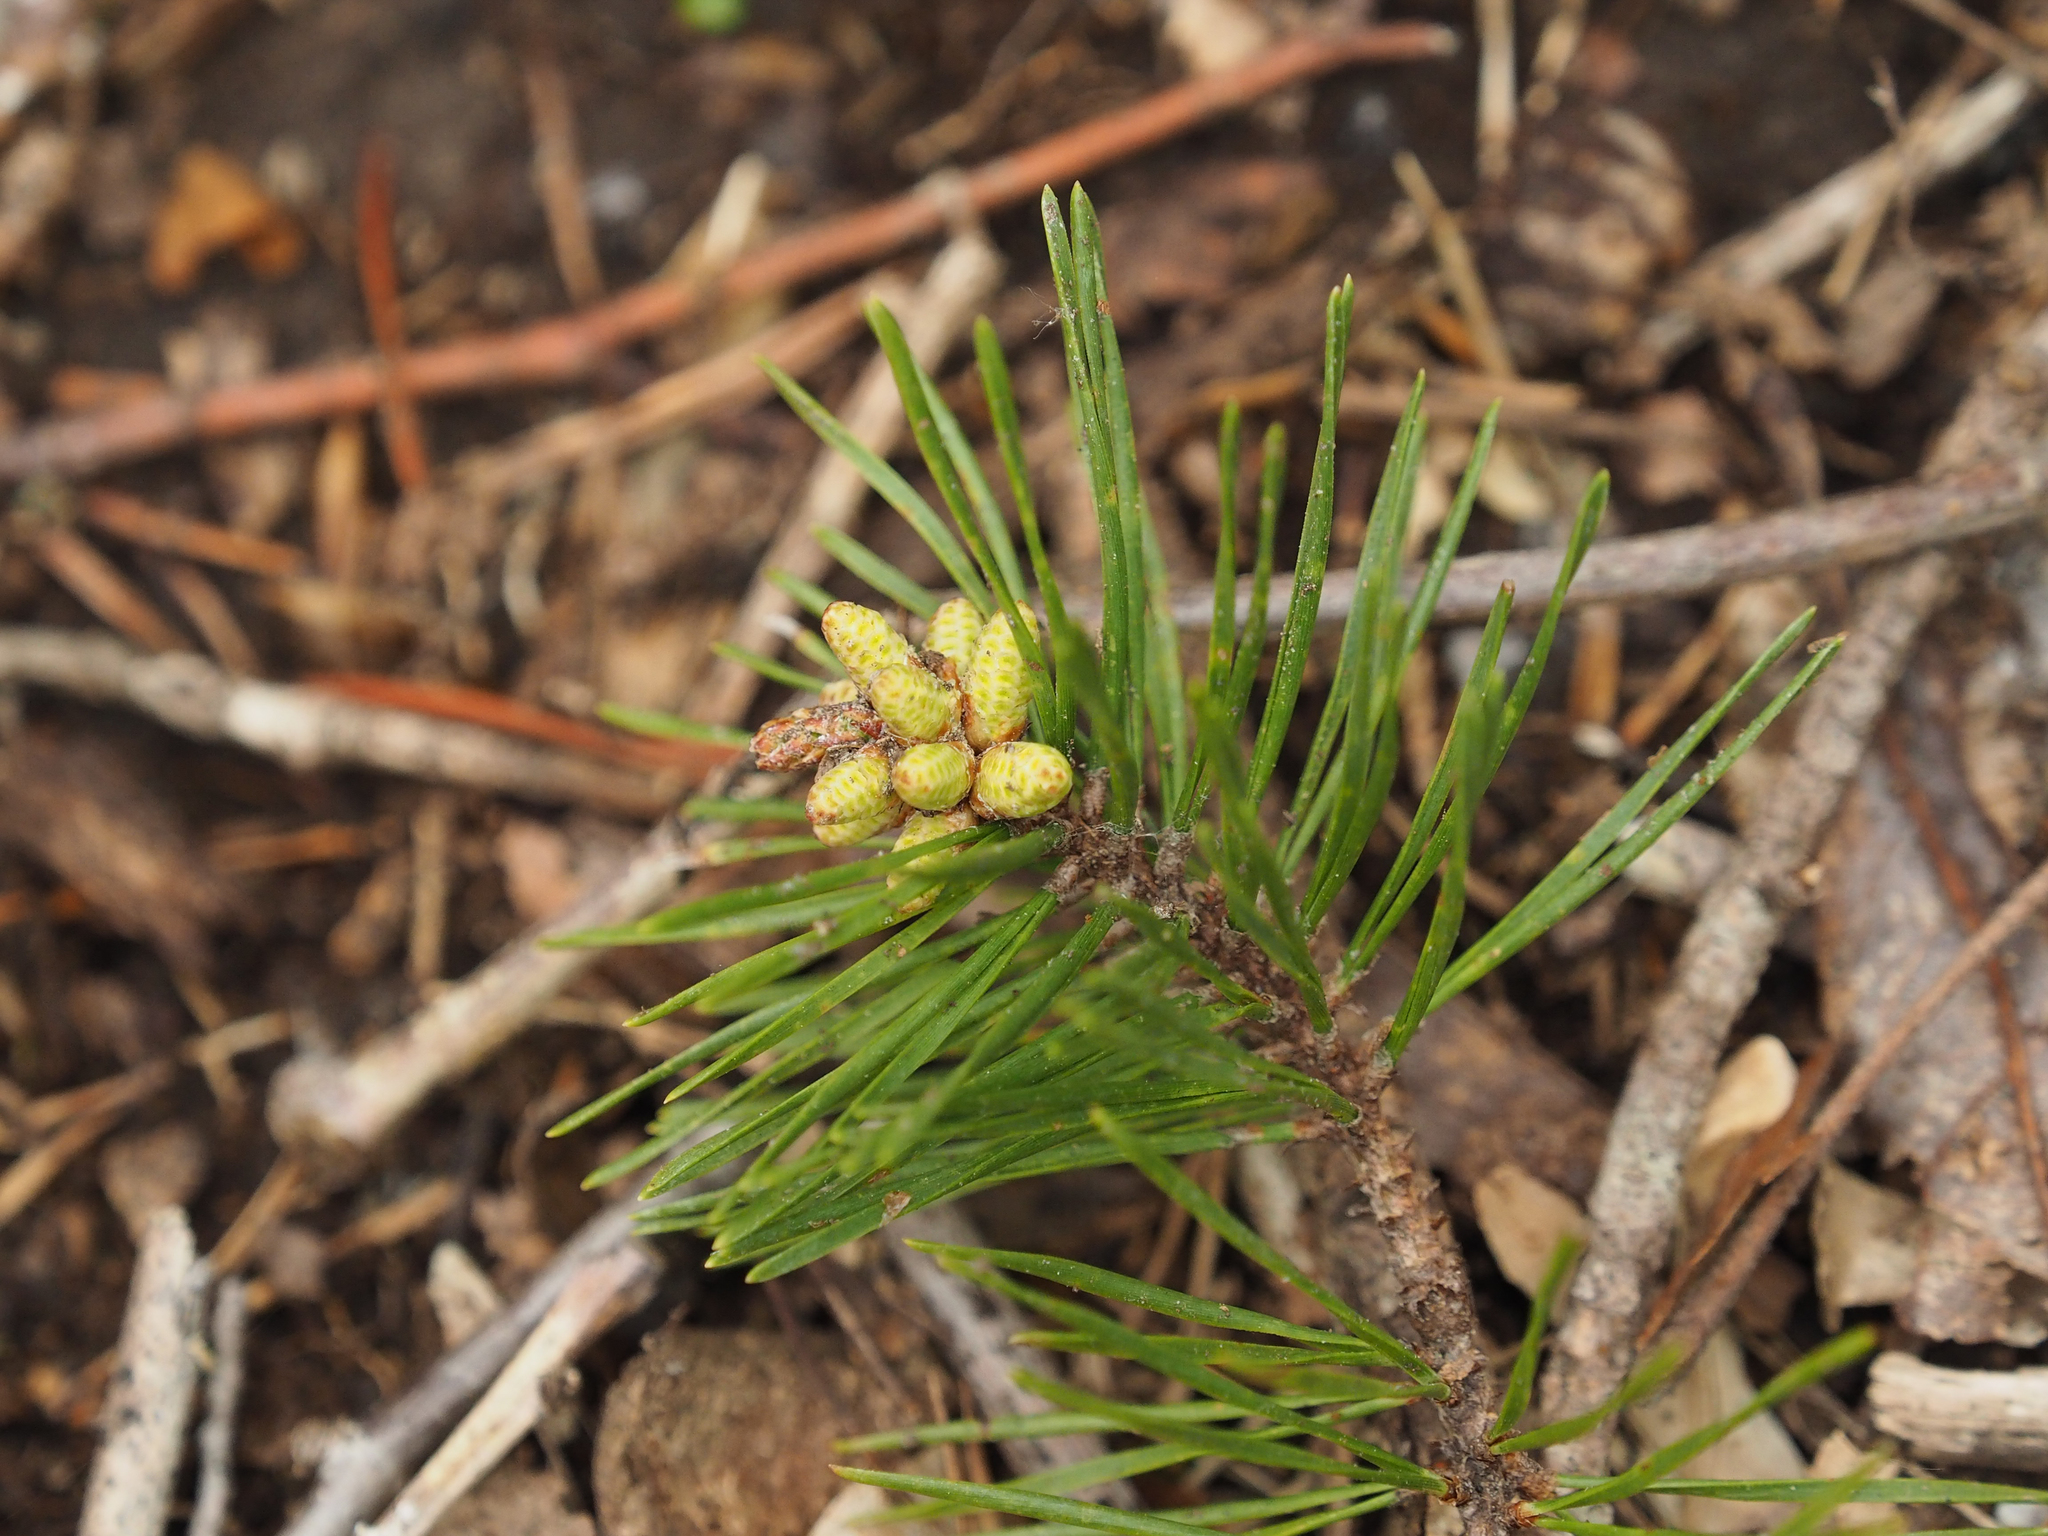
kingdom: Plantae
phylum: Tracheophyta
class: Pinopsida
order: Pinales
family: Pinaceae
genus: Pinus
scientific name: Pinus virginiana
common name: Scrub pine
